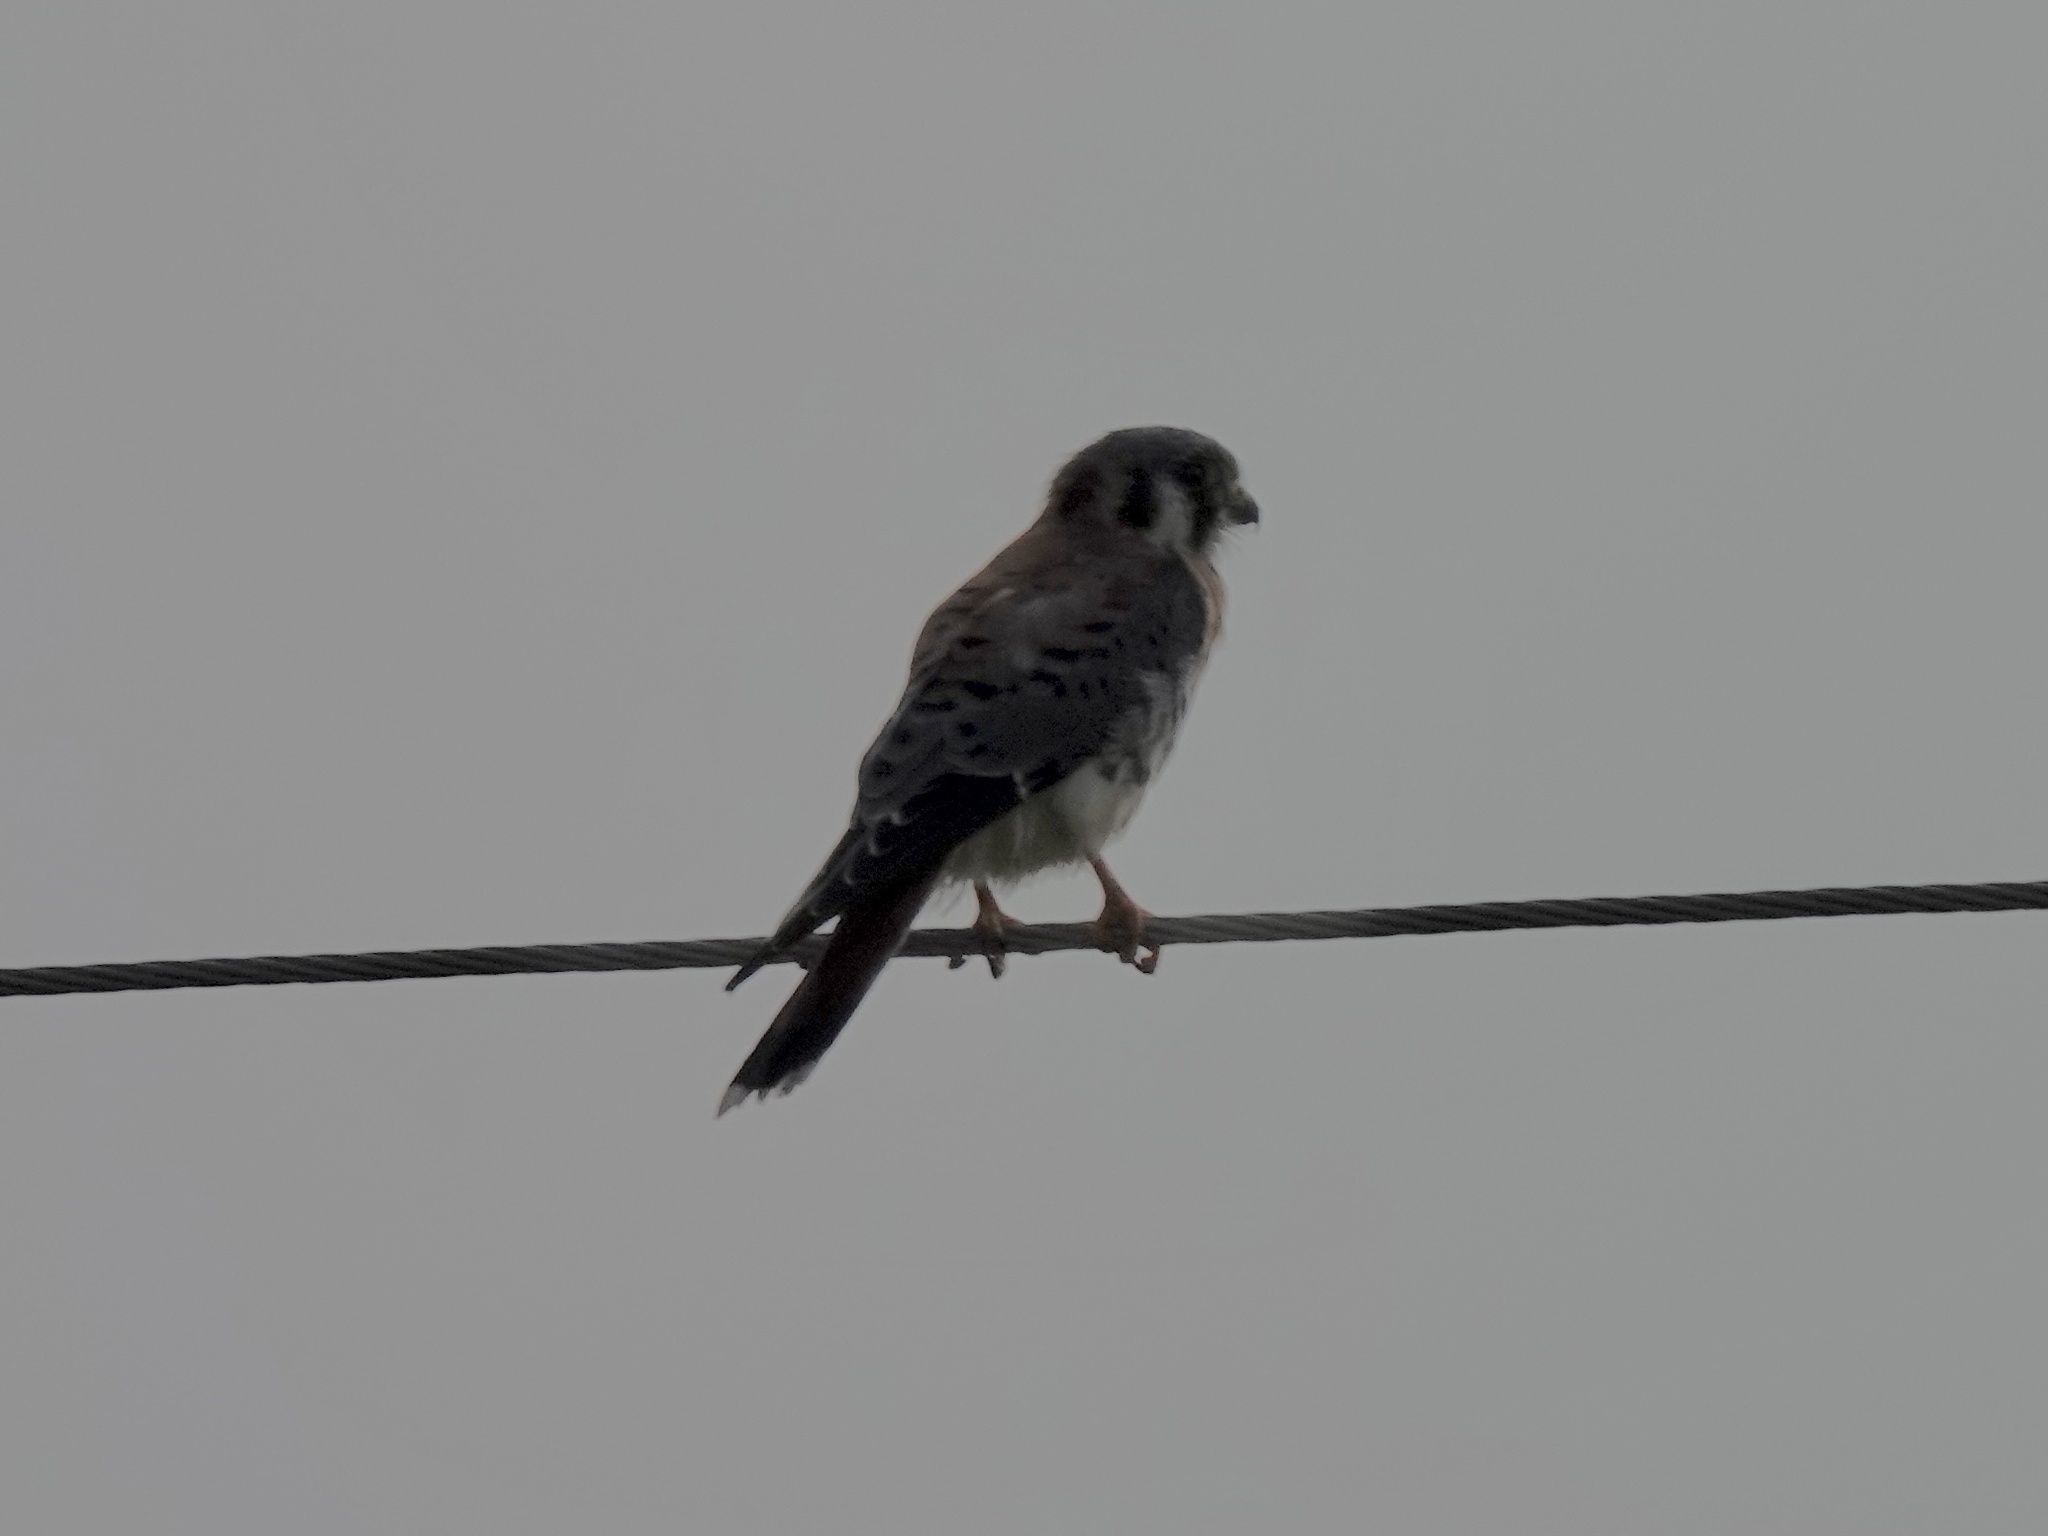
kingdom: Animalia
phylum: Chordata
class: Aves
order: Falconiformes
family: Falconidae
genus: Falco
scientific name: Falco sparverius
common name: American kestrel
